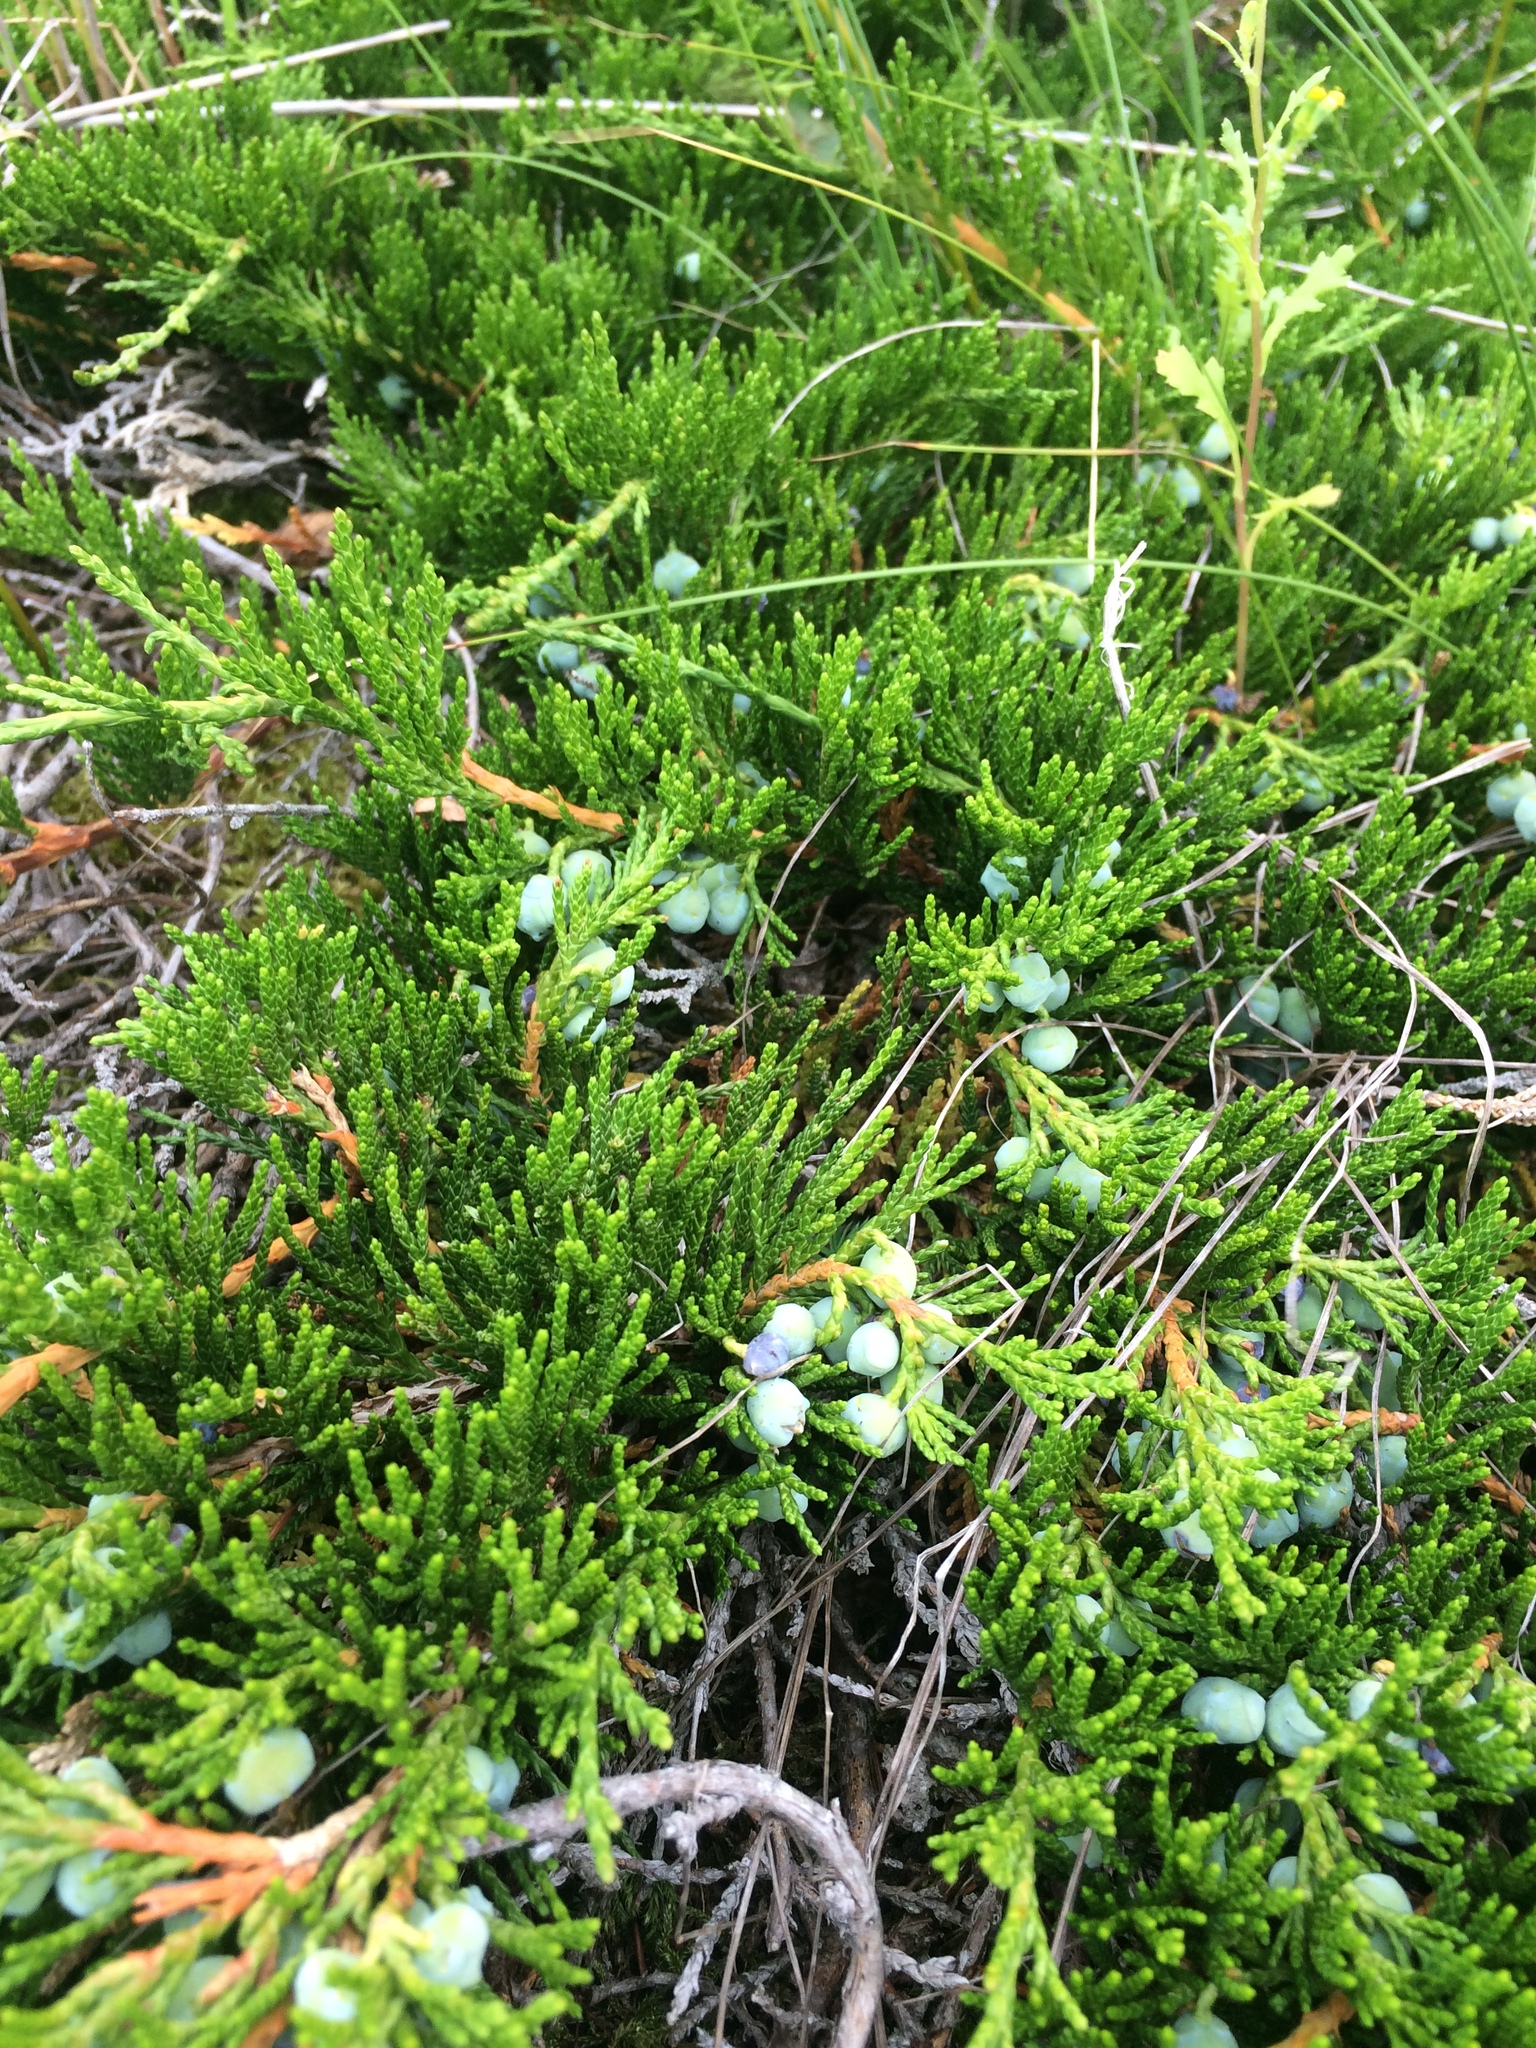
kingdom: Plantae
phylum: Tracheophyta
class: Pinopsida
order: Pinales
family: Cupressaceae
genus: Juniperus
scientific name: Juniperus horizontalis
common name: Creeping juniper
